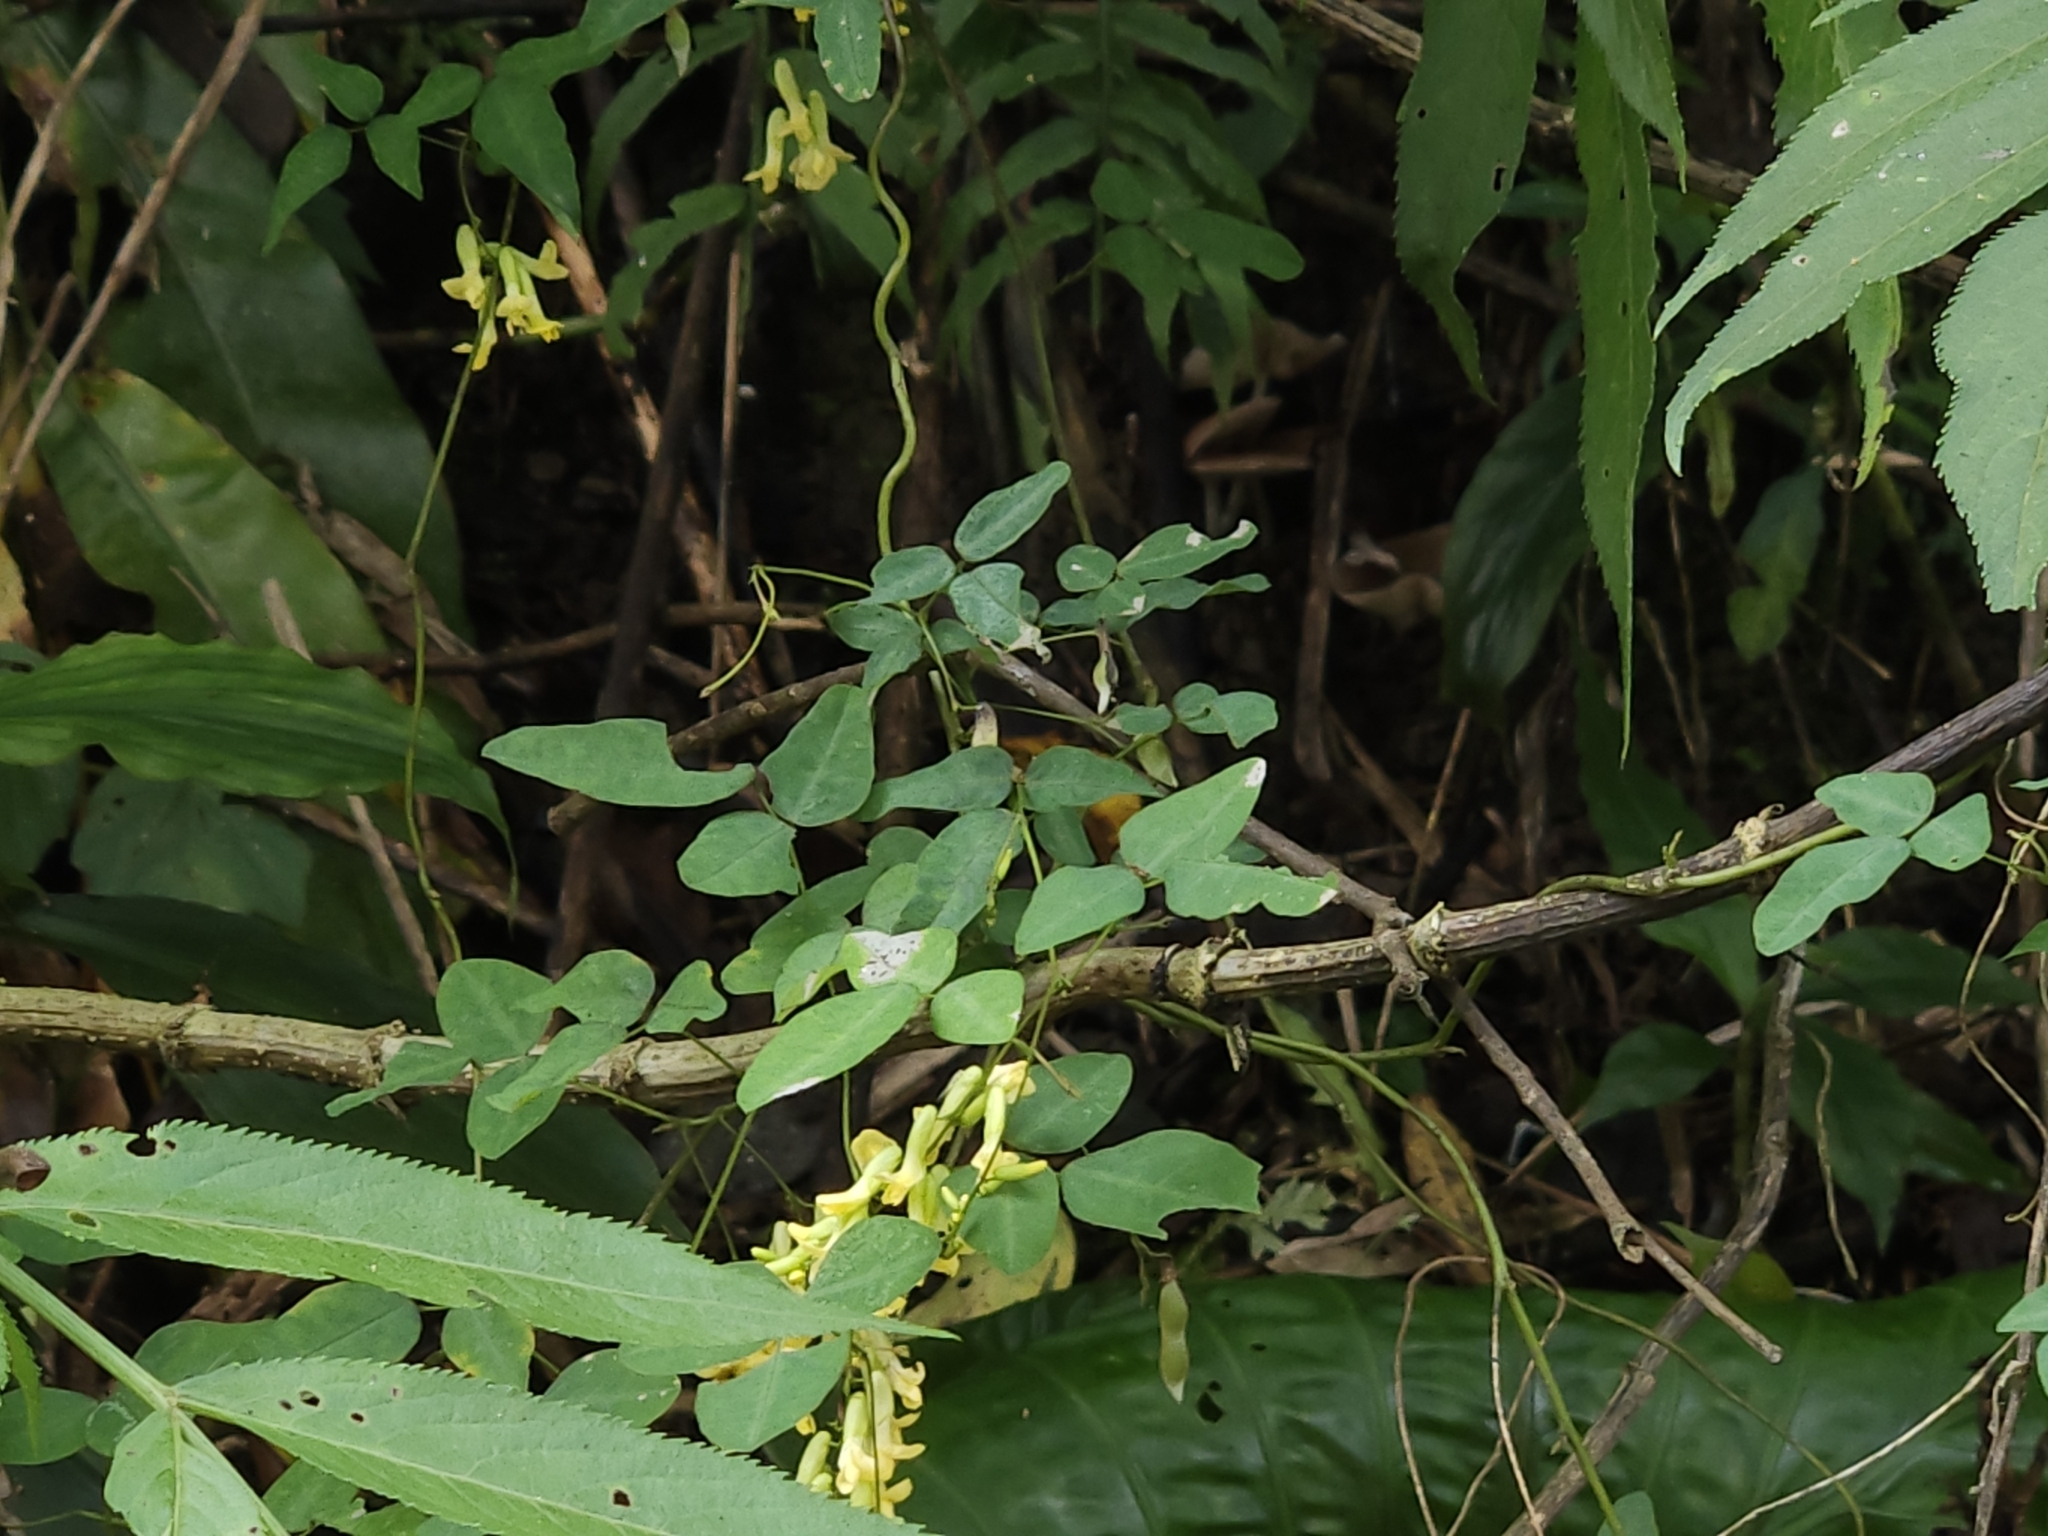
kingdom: Plantae
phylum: Tracheophyta
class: Magnoliopsida
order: Fabales
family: Fabaceae
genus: Dumasia
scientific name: Dumasia villosa
